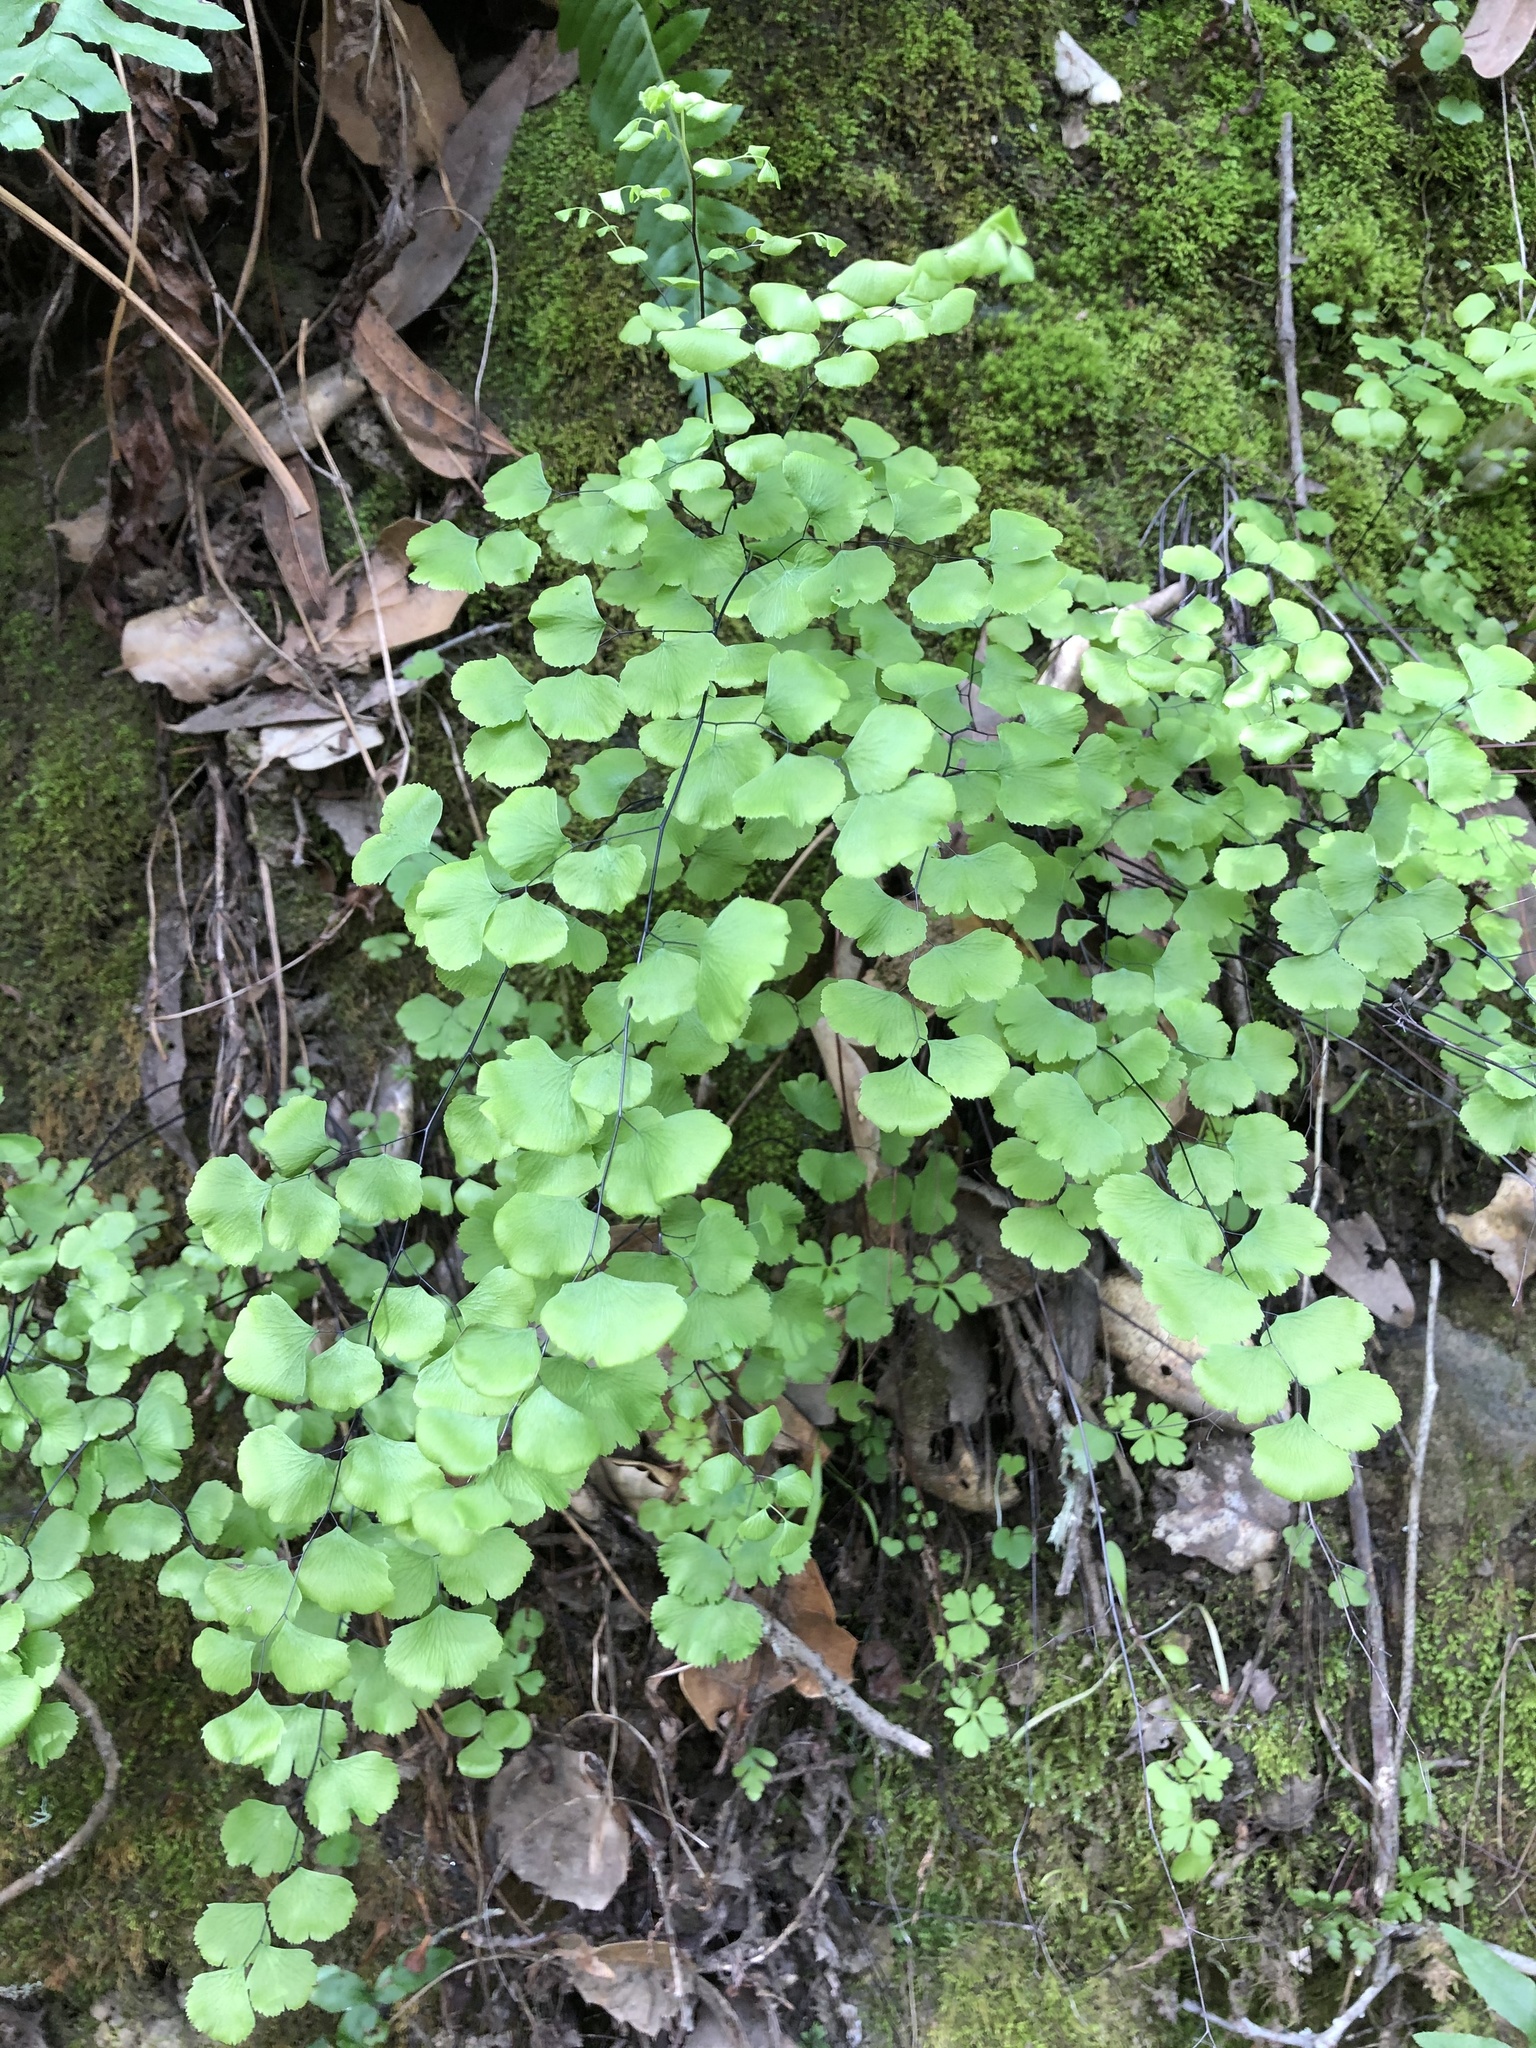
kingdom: Plantae
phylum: Tracheophyta
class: Polypodiopsida
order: Polypodiales
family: Pteridaceae
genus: Adiantum
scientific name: Adiantum jordanii
